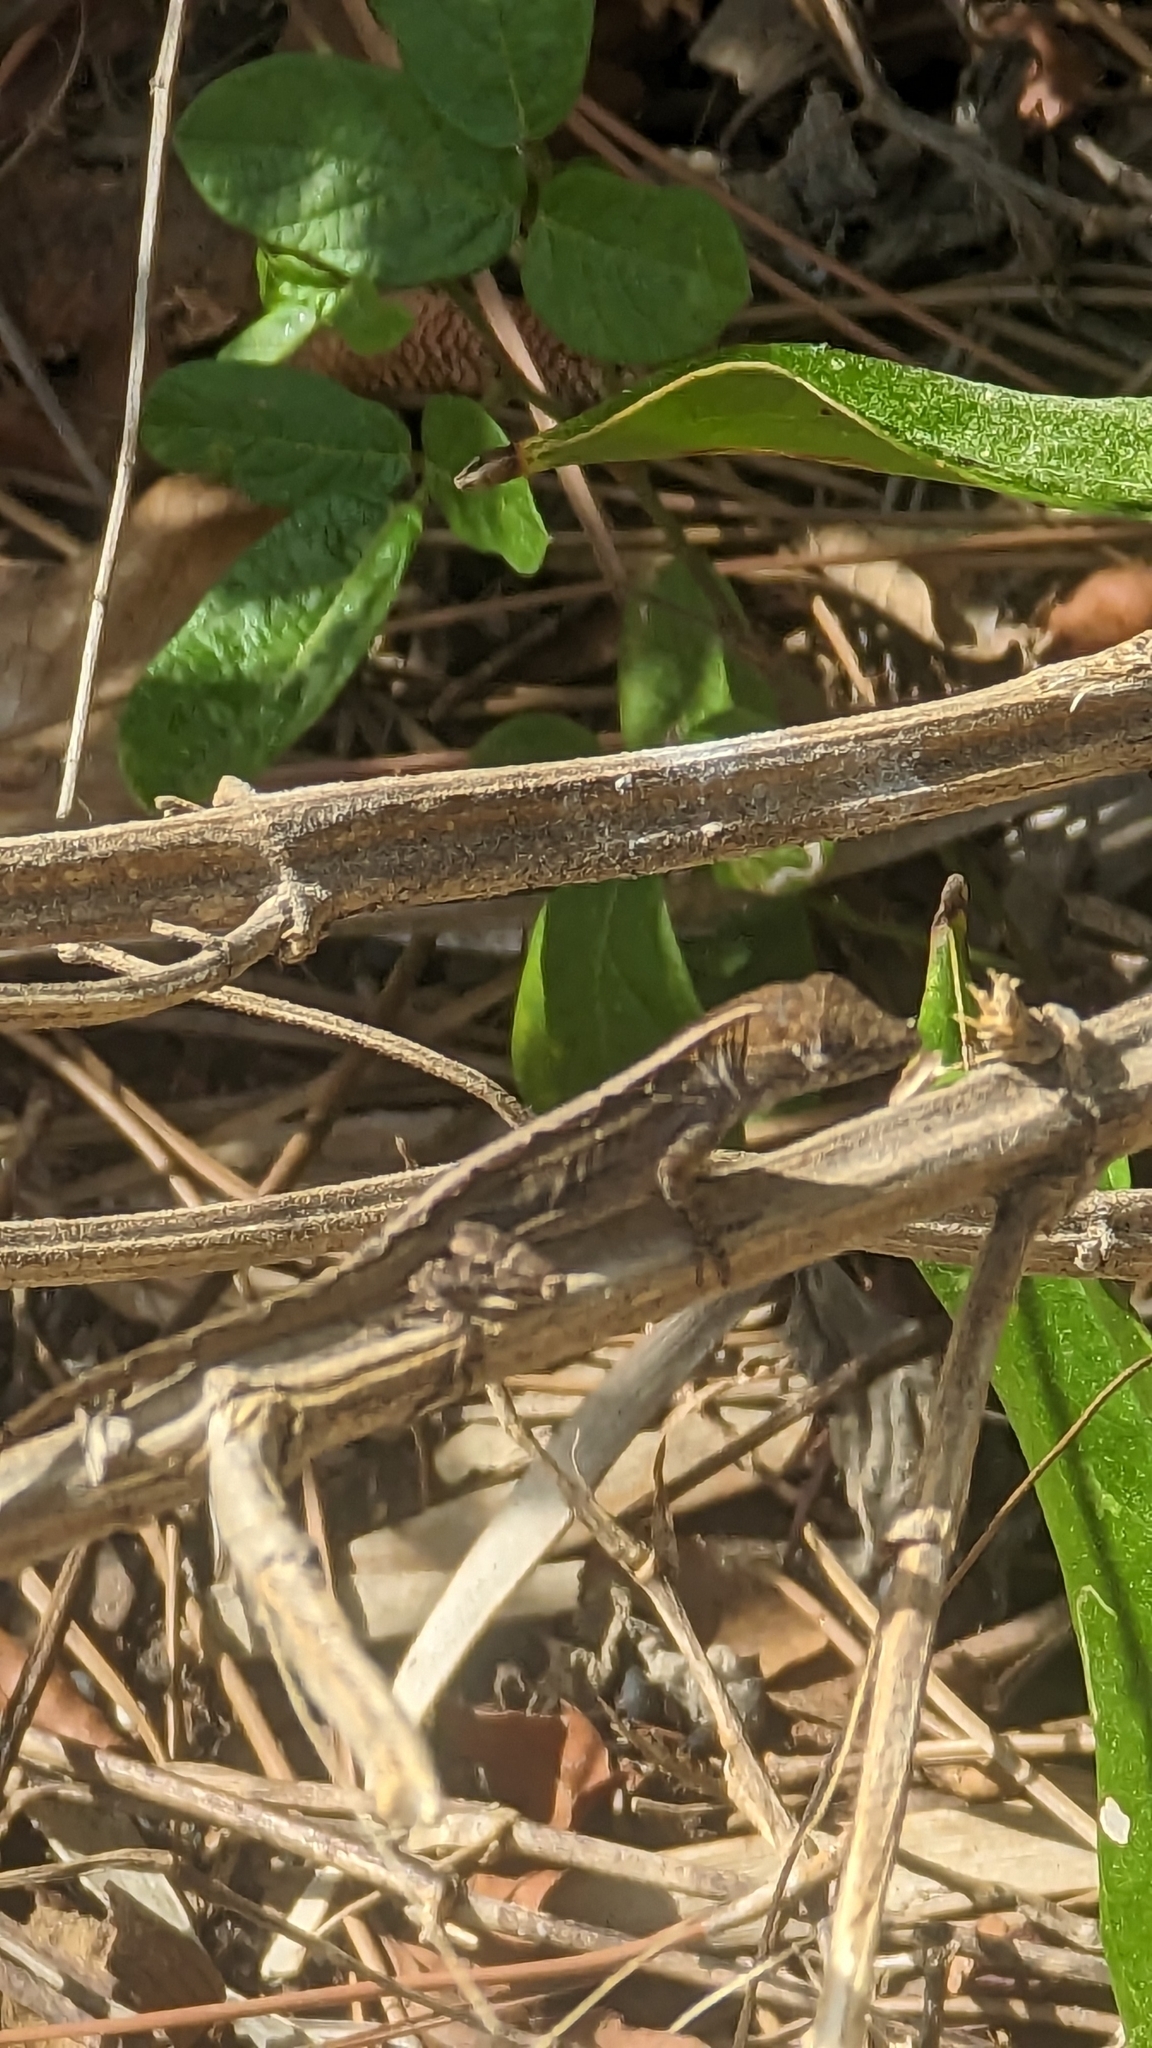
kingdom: Animalia
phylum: Chordata
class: Squamata
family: Dactyloidae
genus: Anolis
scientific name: Anolis sagrei
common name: Brown anole
